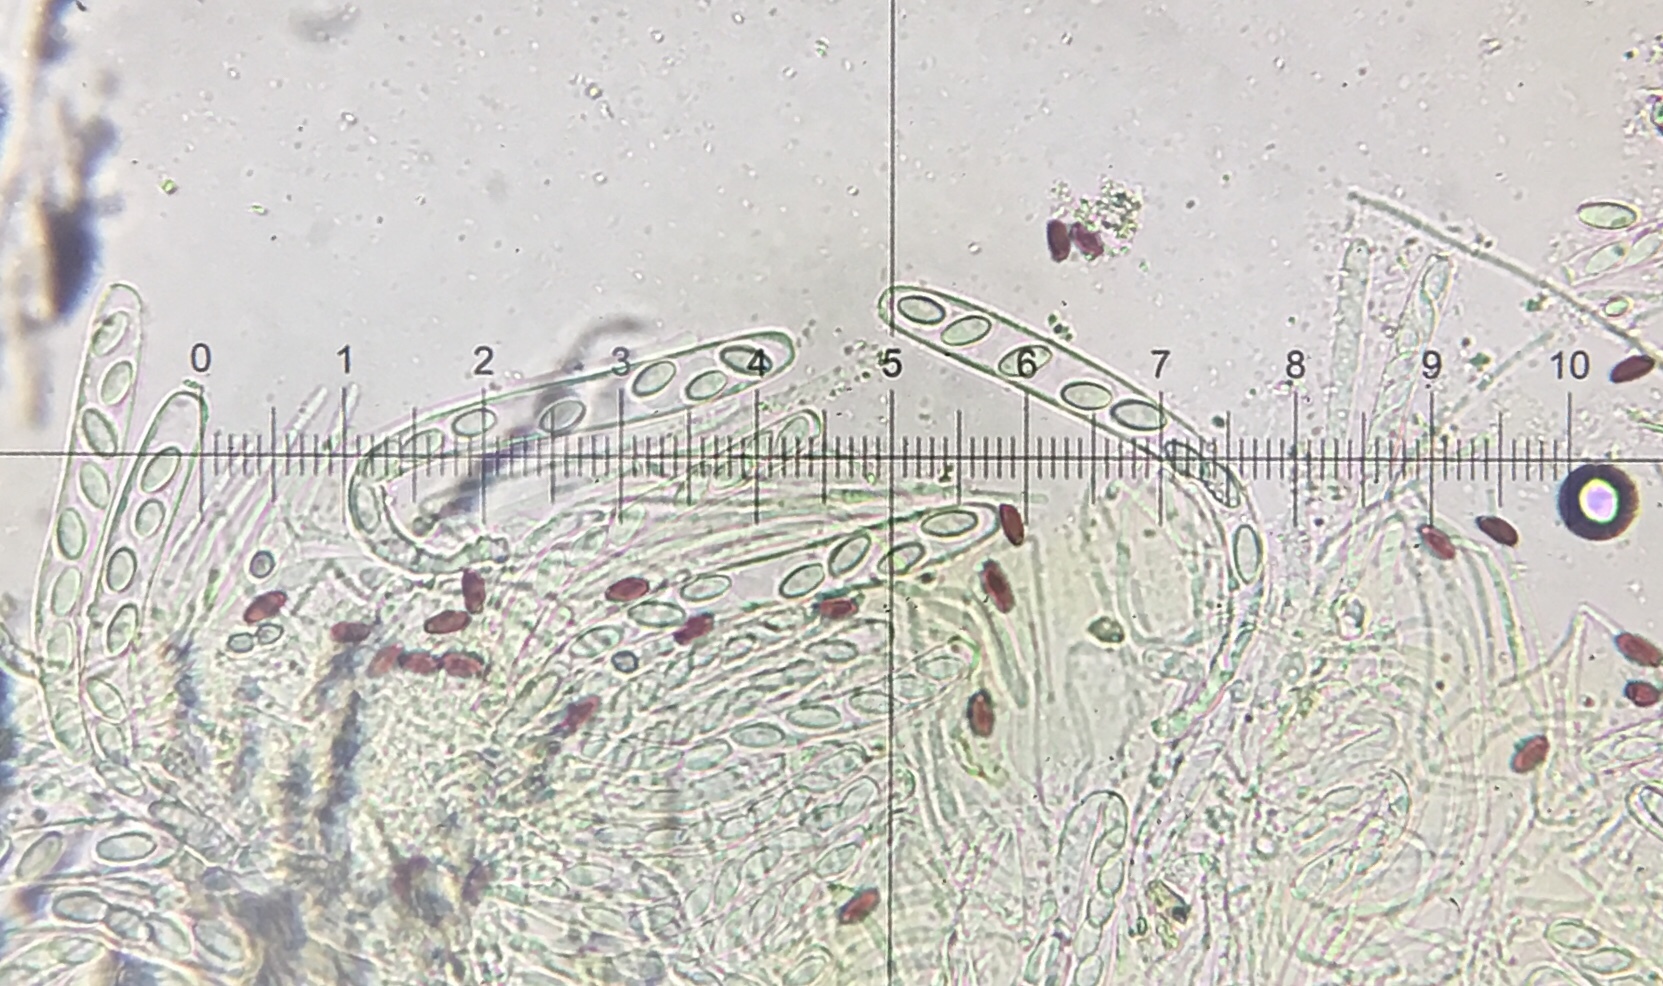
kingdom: Fungi
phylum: Ascomycota
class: Pezizomycetes
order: Pezizales
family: Pezizaceae
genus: Iodophanus
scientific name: Iodophanus carneus
